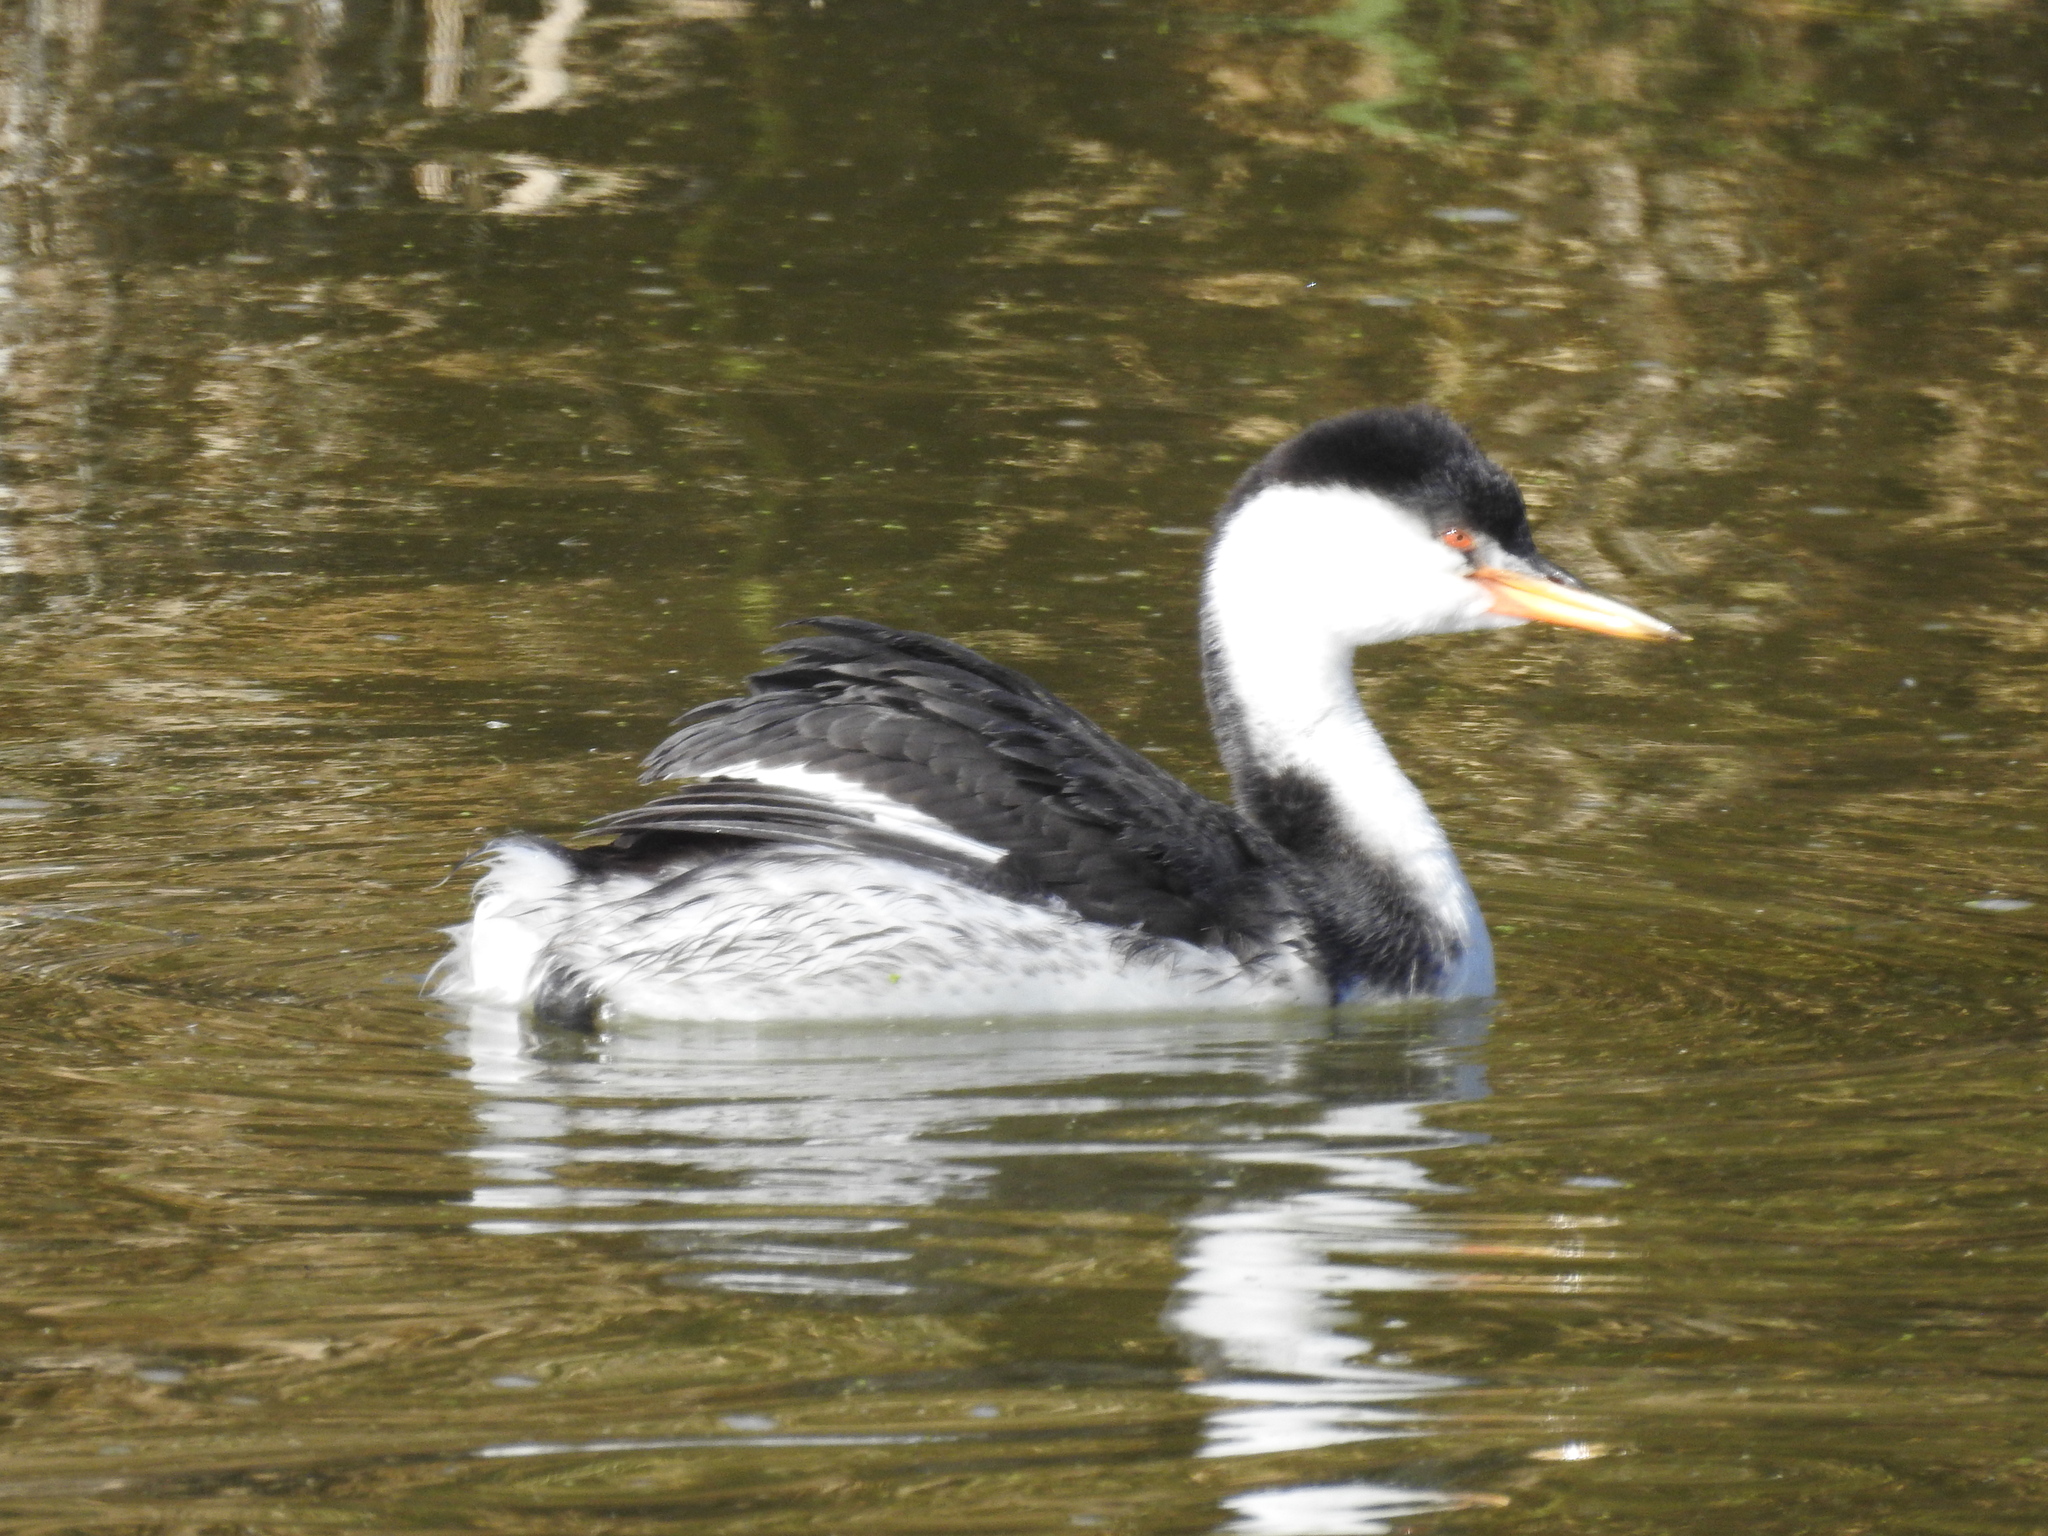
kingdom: Animalia
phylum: Chordata
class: Aves
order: Podicipediformes
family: Podicipedidae
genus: Aechmophorus
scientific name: Aechmophorus clarkii
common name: Clark's grebe
